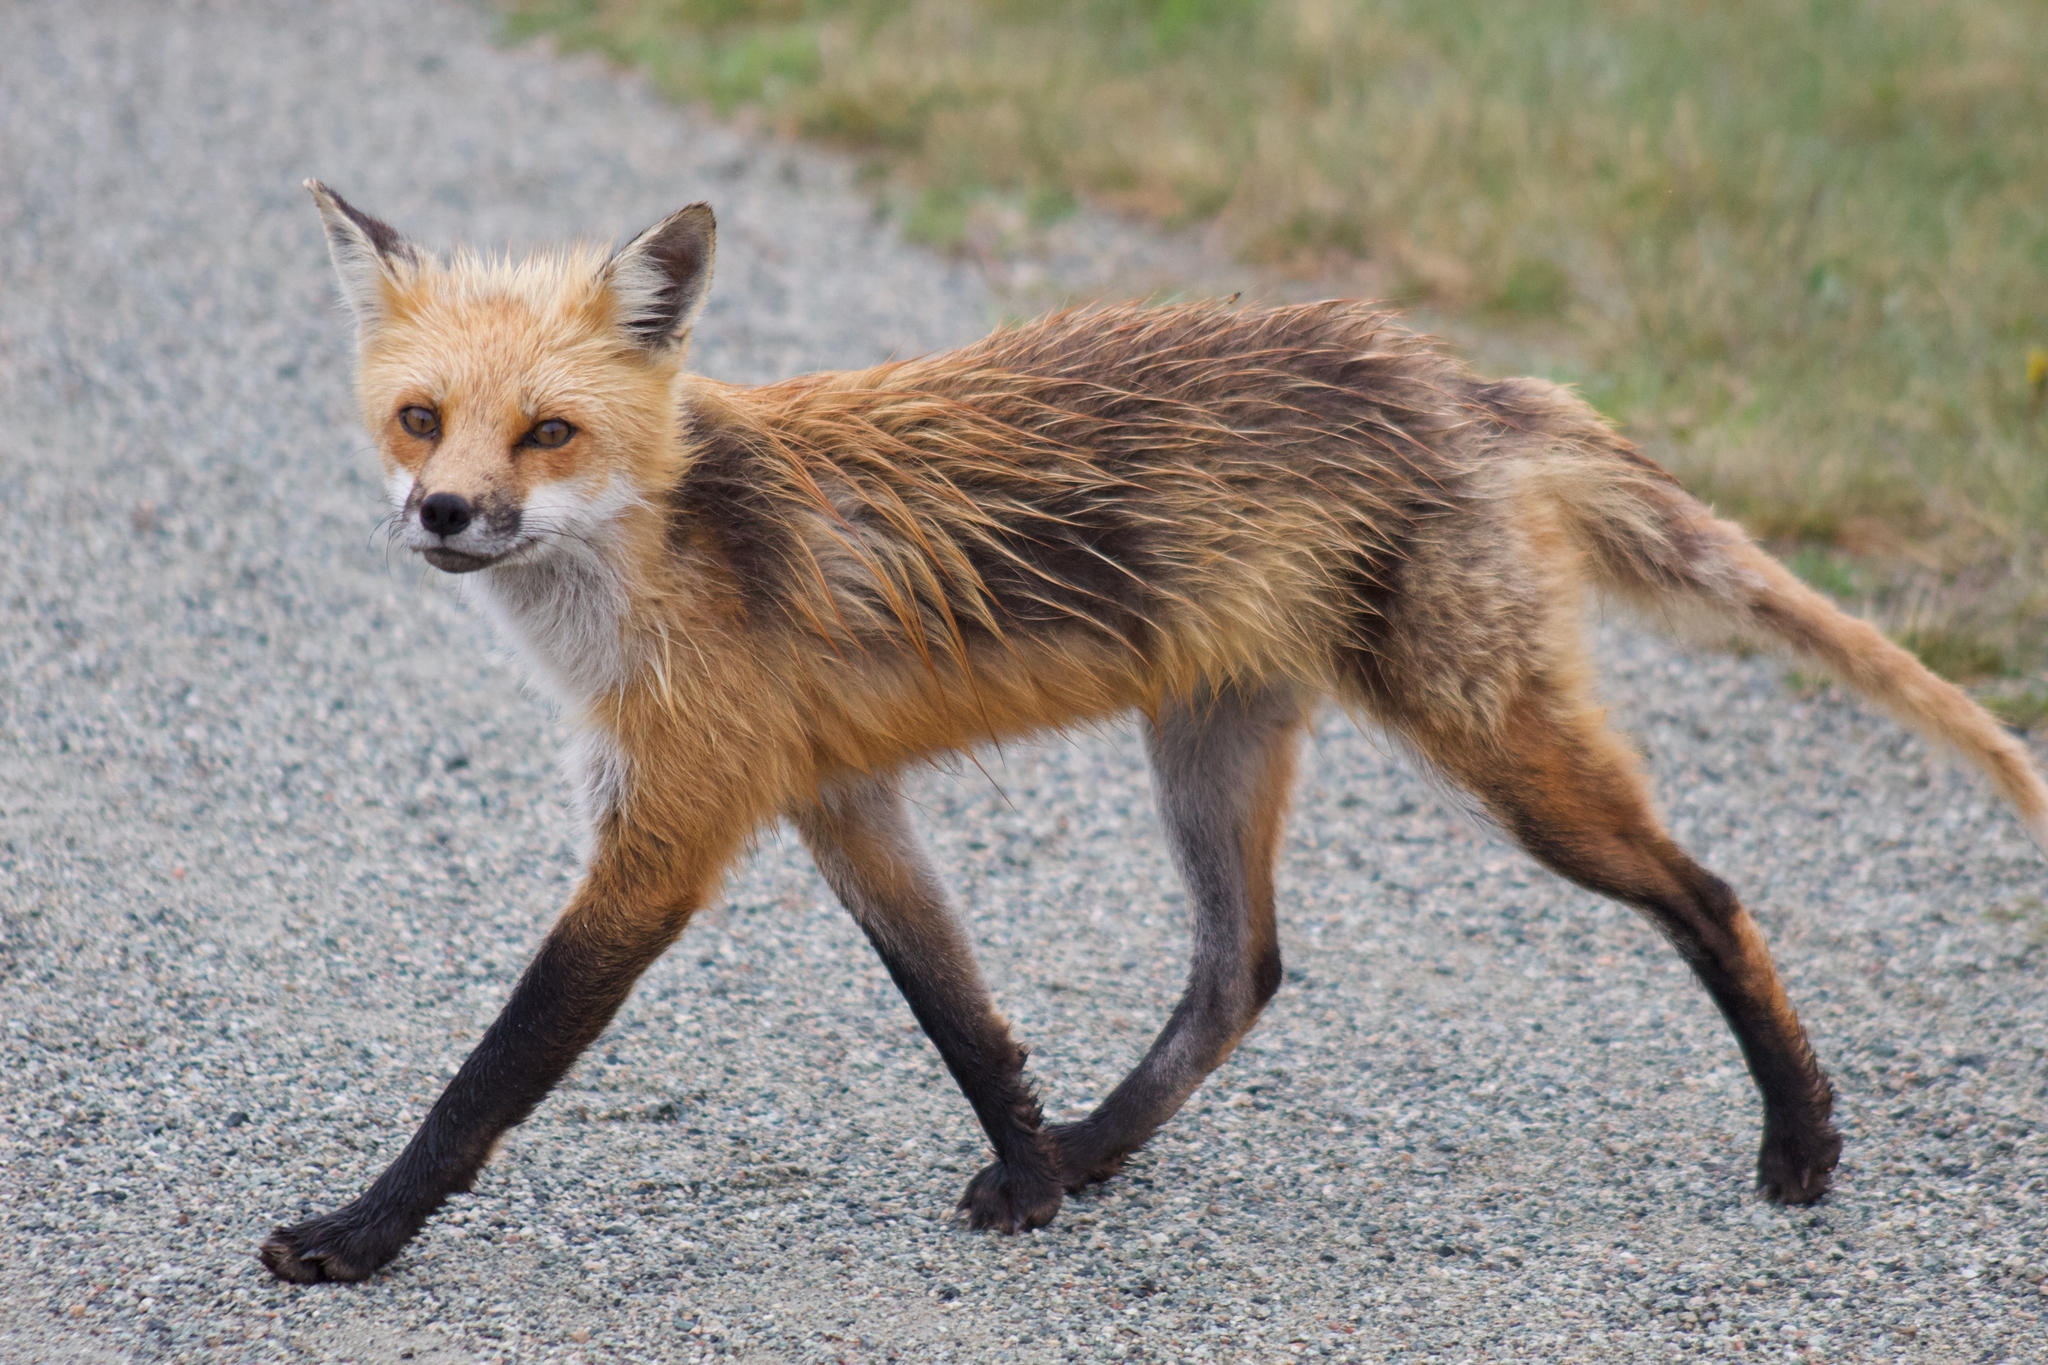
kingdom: Animalia
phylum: Chordata
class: Mammalia
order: Carnivora
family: Canidae
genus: Vulpes
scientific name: Vulpes vulpes
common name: Red fox
